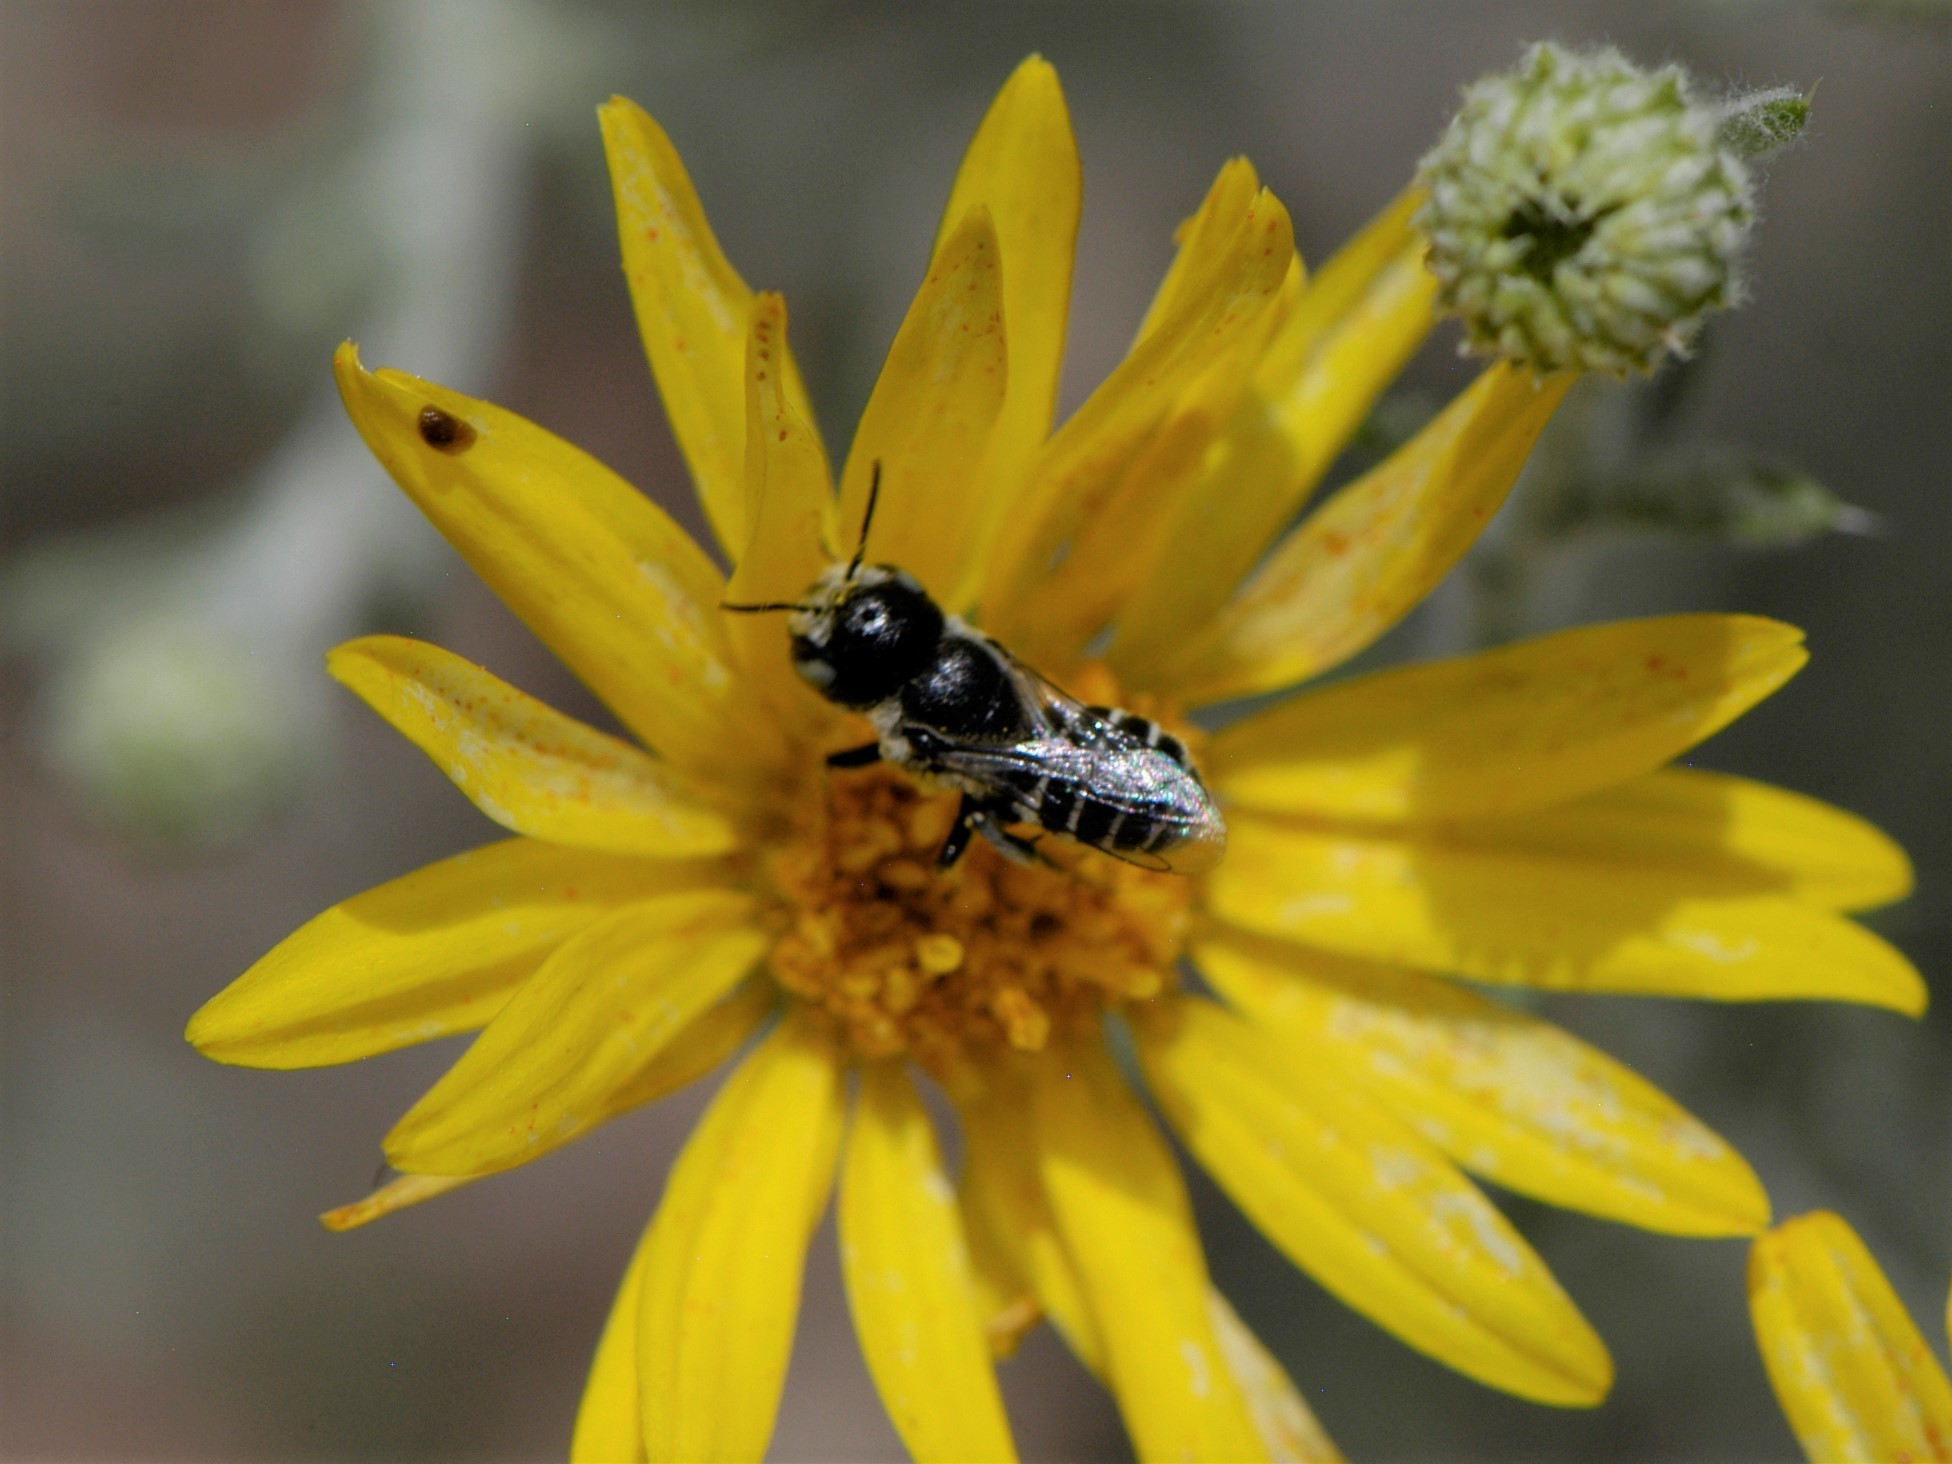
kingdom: Animalia
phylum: Arthropoda
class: Insecta
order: Hymenoptera
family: Megachilidae
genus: Ashmeadiella
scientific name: Ashmeadiella
